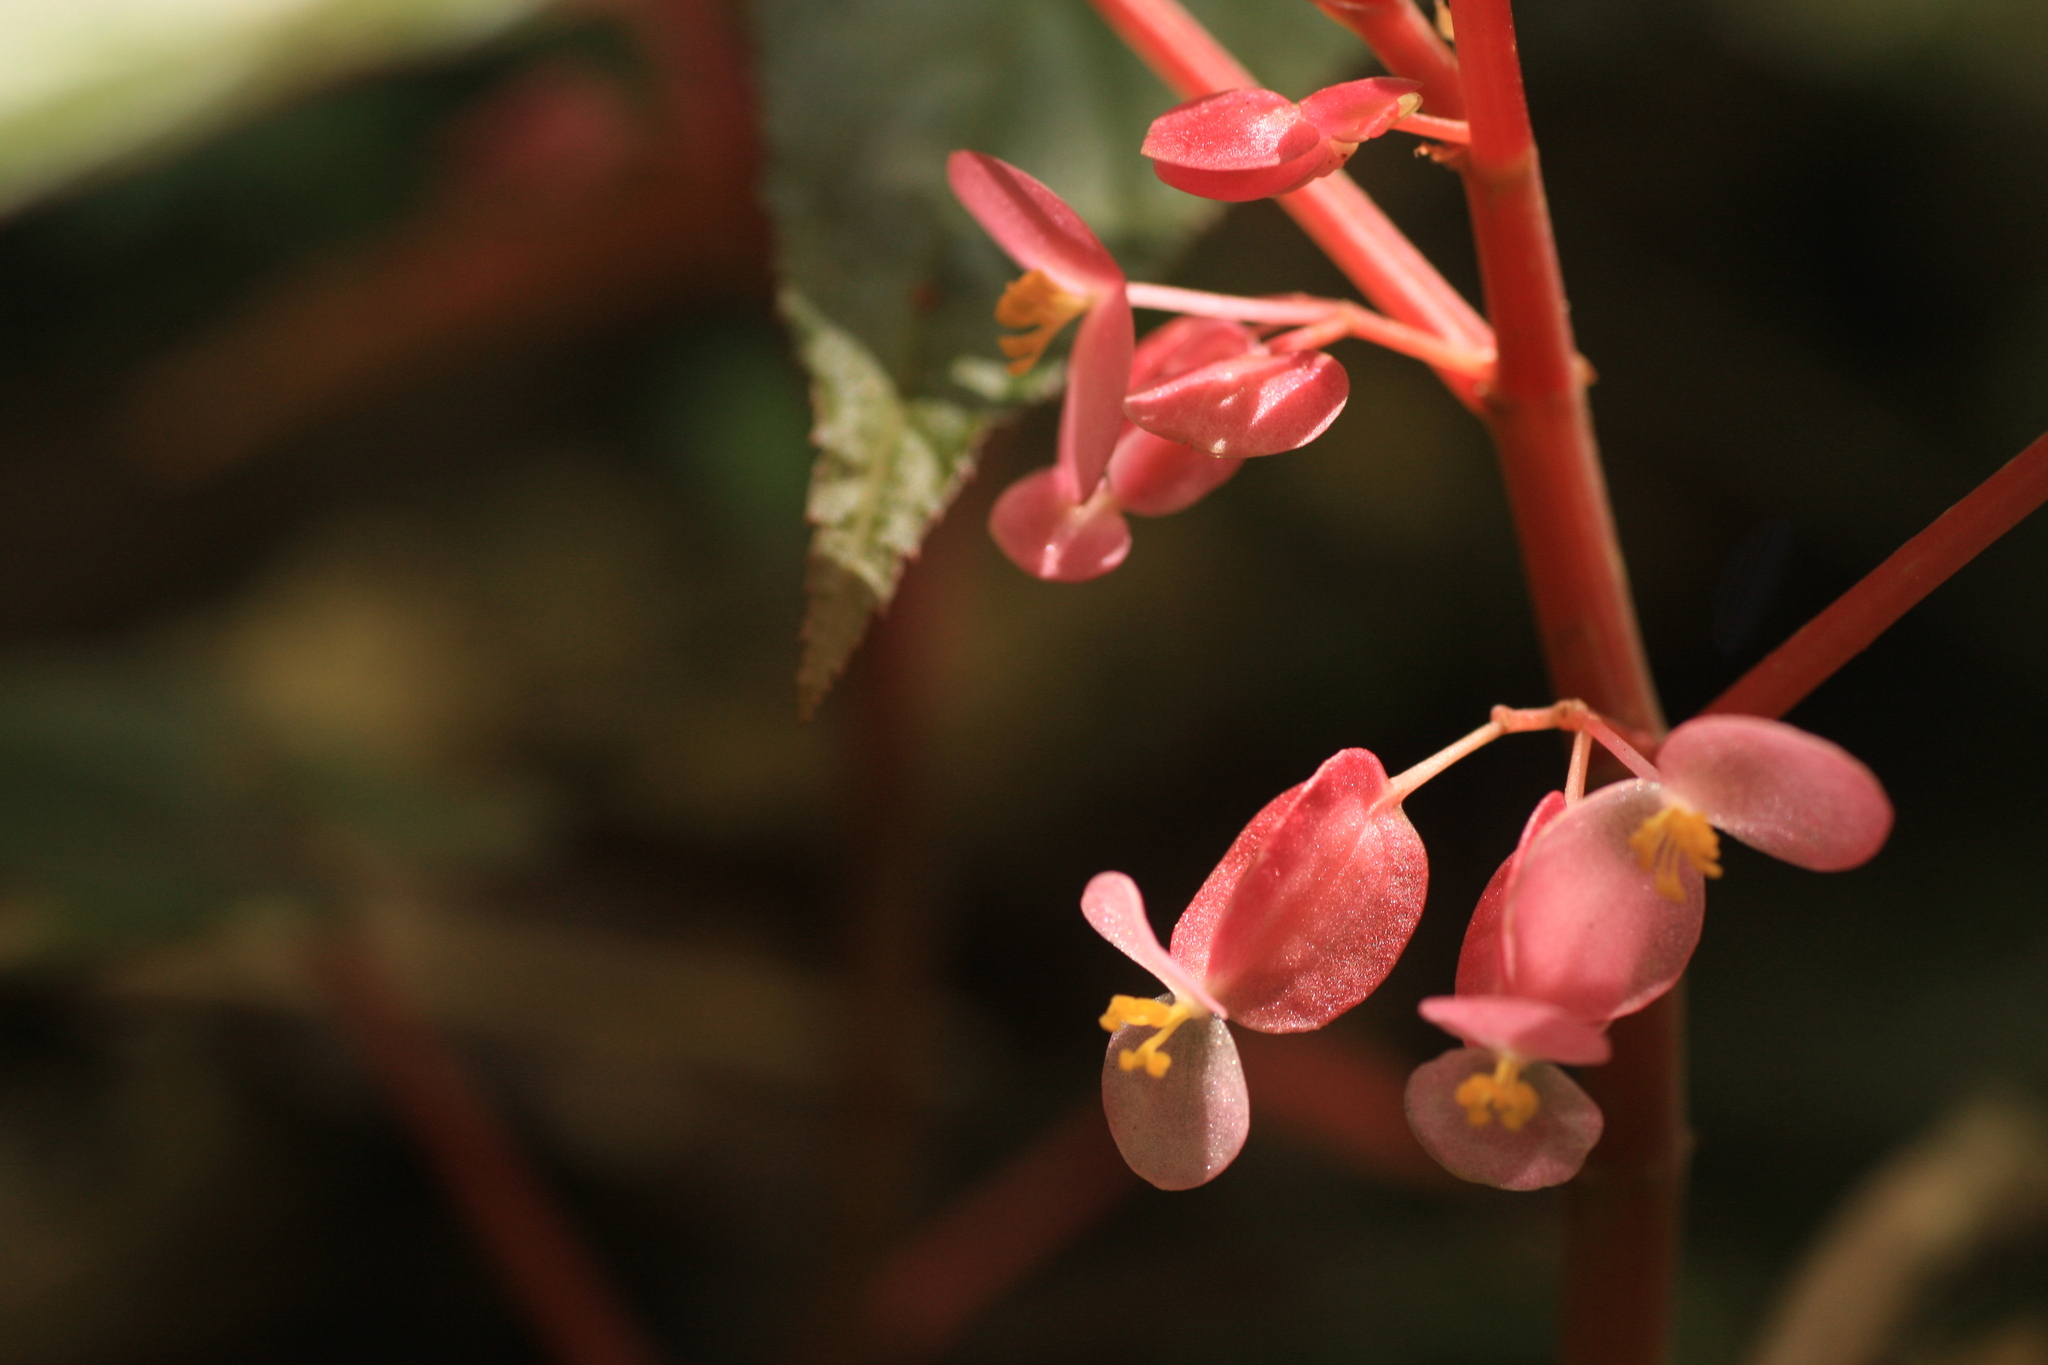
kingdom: Plantae
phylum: Tracheophyta
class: Magnoliopsida
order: Cucurbitales
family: Begoniaceae
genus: Begonia
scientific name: Begonia dipetala
